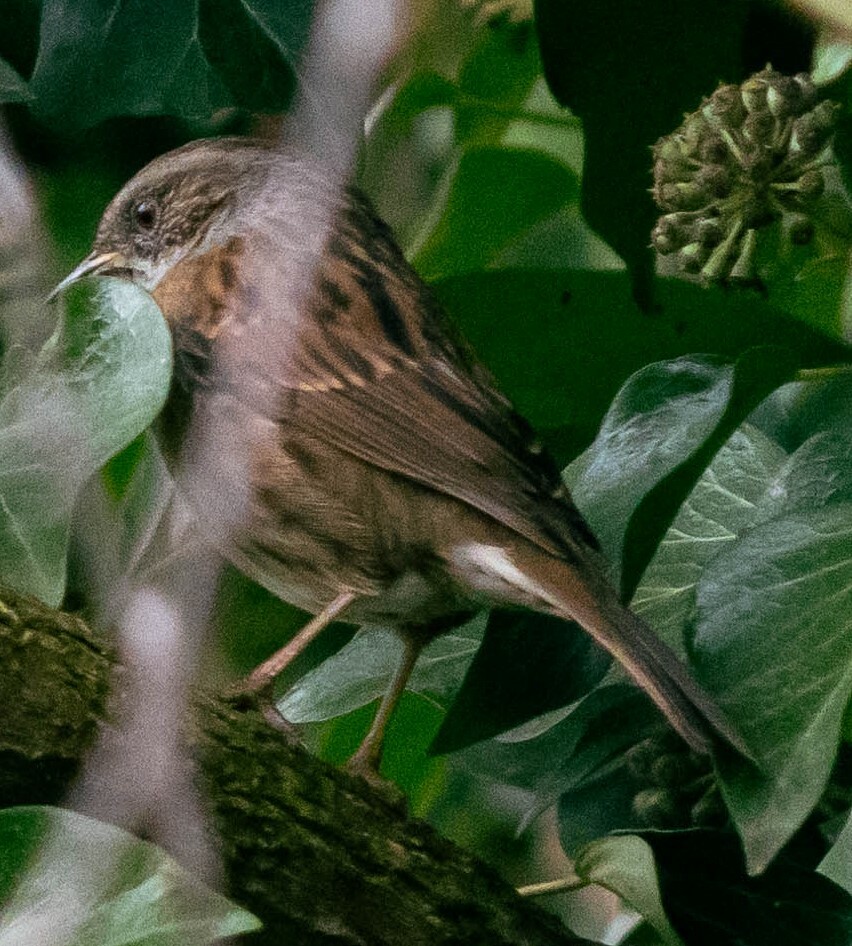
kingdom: Animalia
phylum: Chordata
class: Aves
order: Passeriformes
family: Prunellidae
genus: Prunella
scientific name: Prunella modularis
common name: Dunnock
